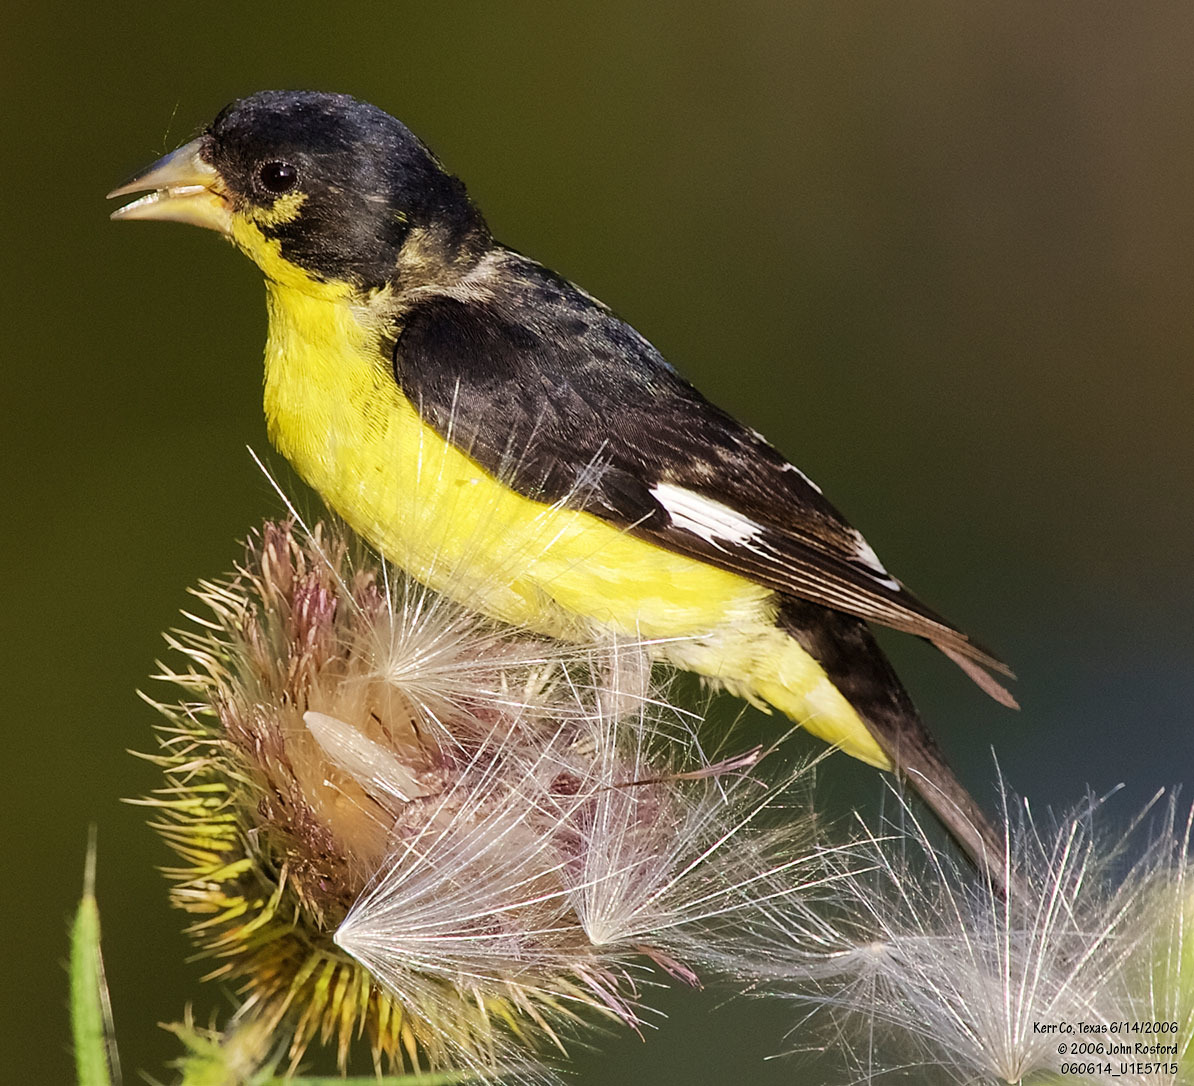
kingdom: Animalia
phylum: Chordata
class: Aves
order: Passeriformes
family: Fringillidae
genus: Spinus
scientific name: Spinus psaltria
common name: Lesser goldfinch
